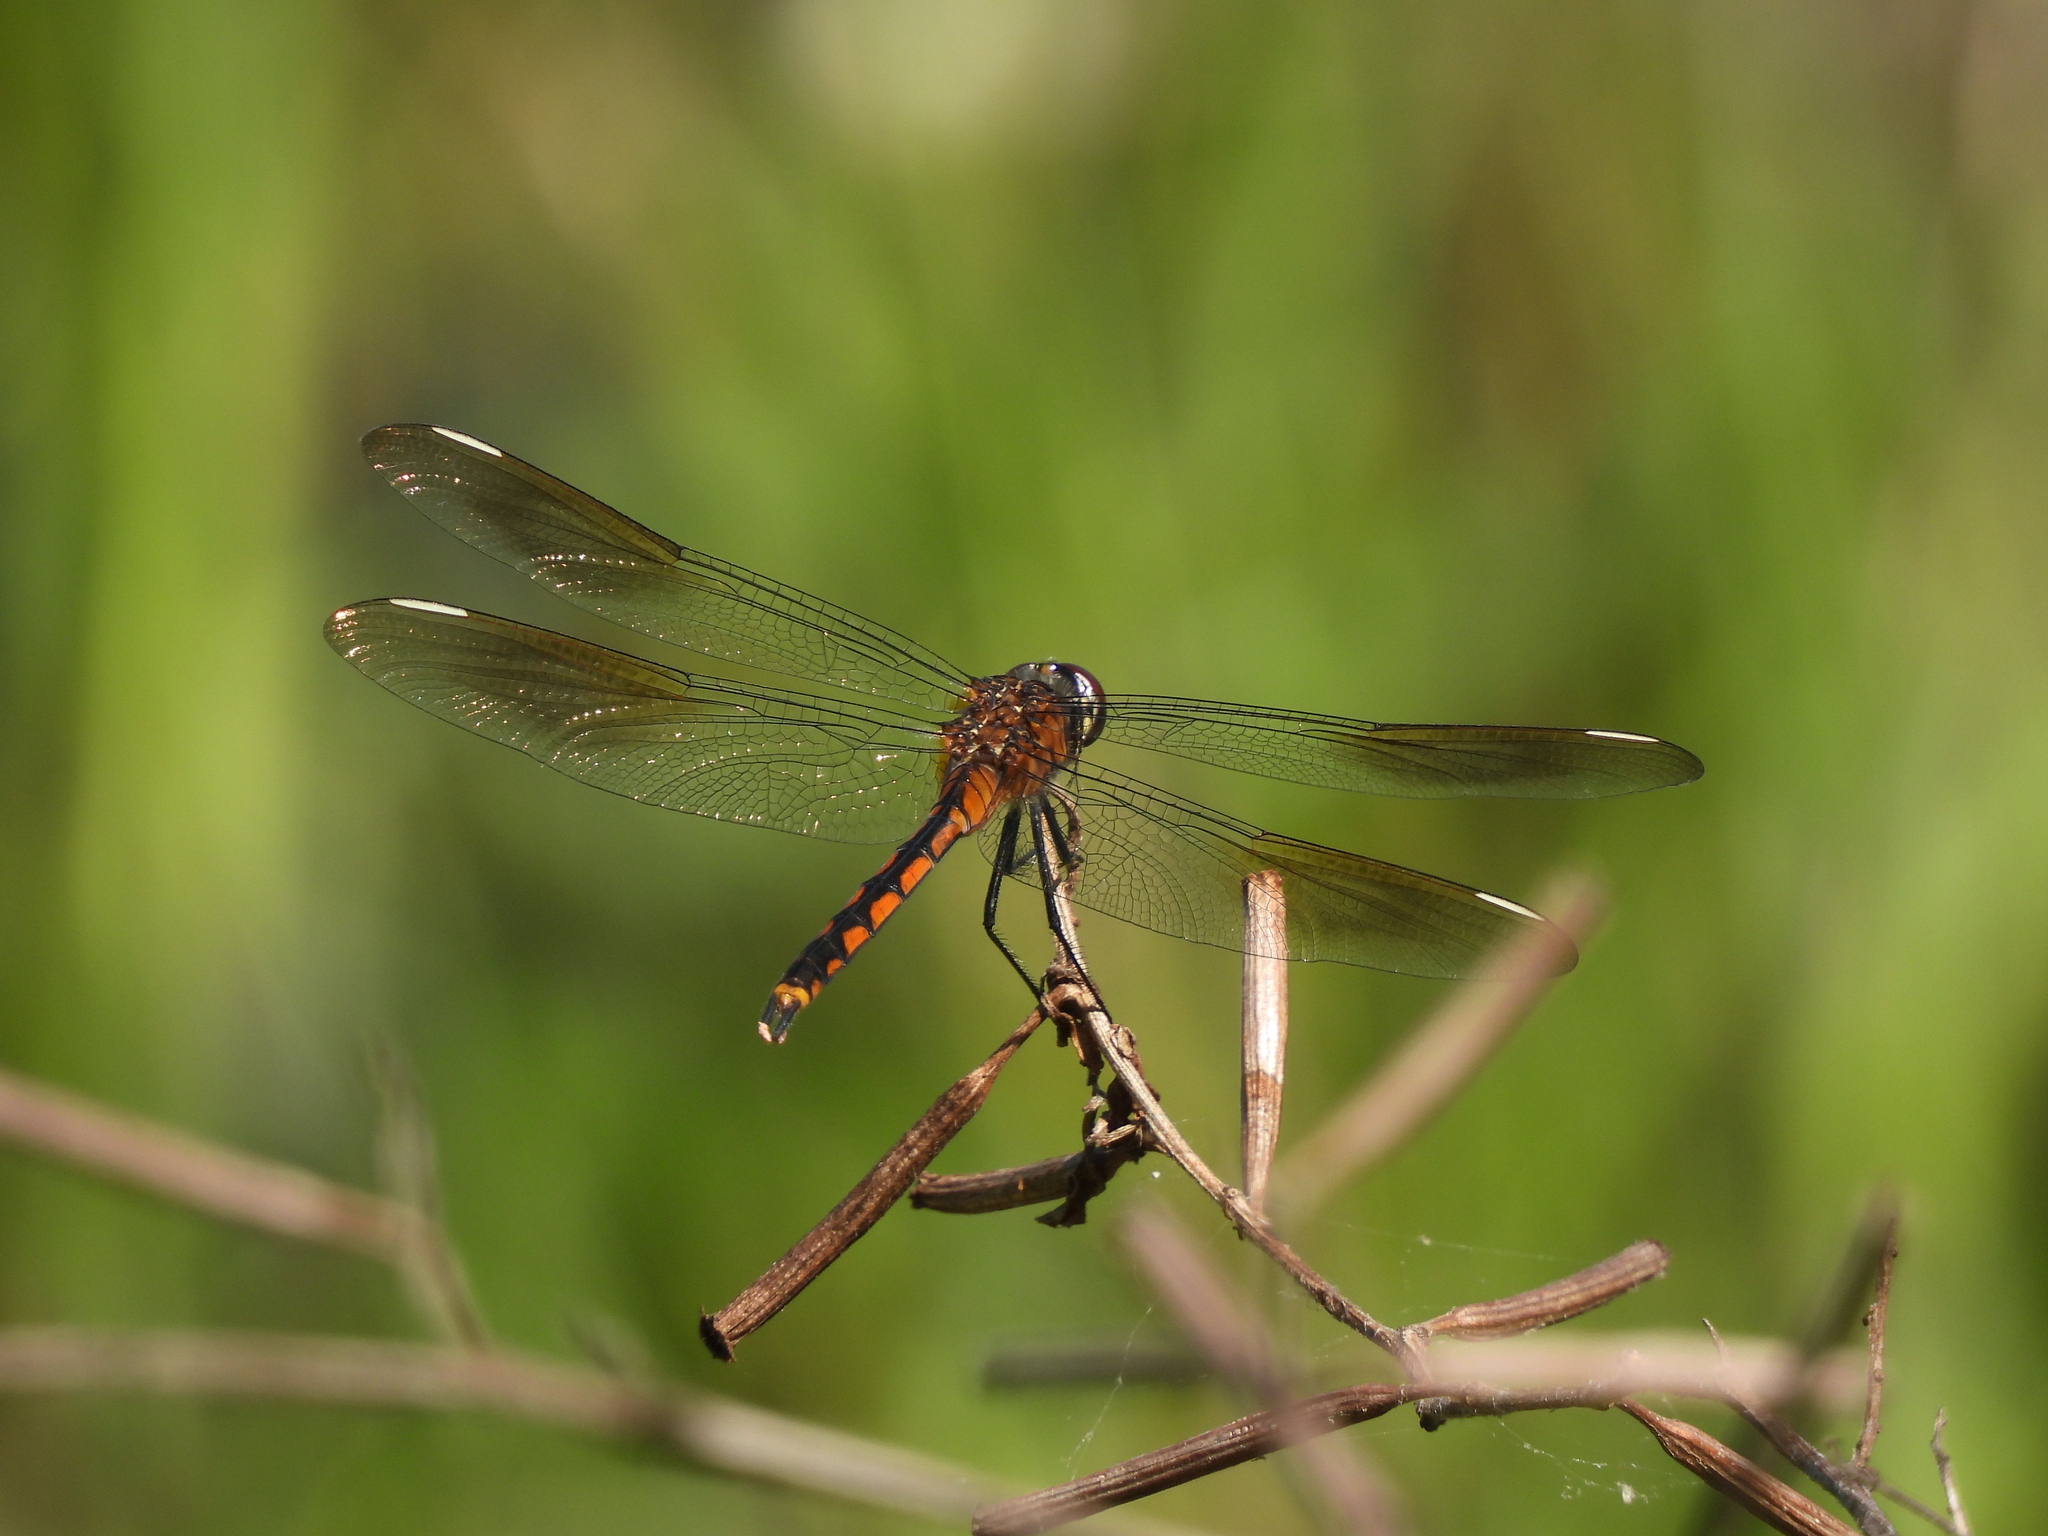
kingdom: Animalia
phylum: Arthropoda
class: Insecta
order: Odonata
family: Libellulidae
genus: Brachymesia
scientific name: Brachymesia gravida
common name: Four-spotted pennant
